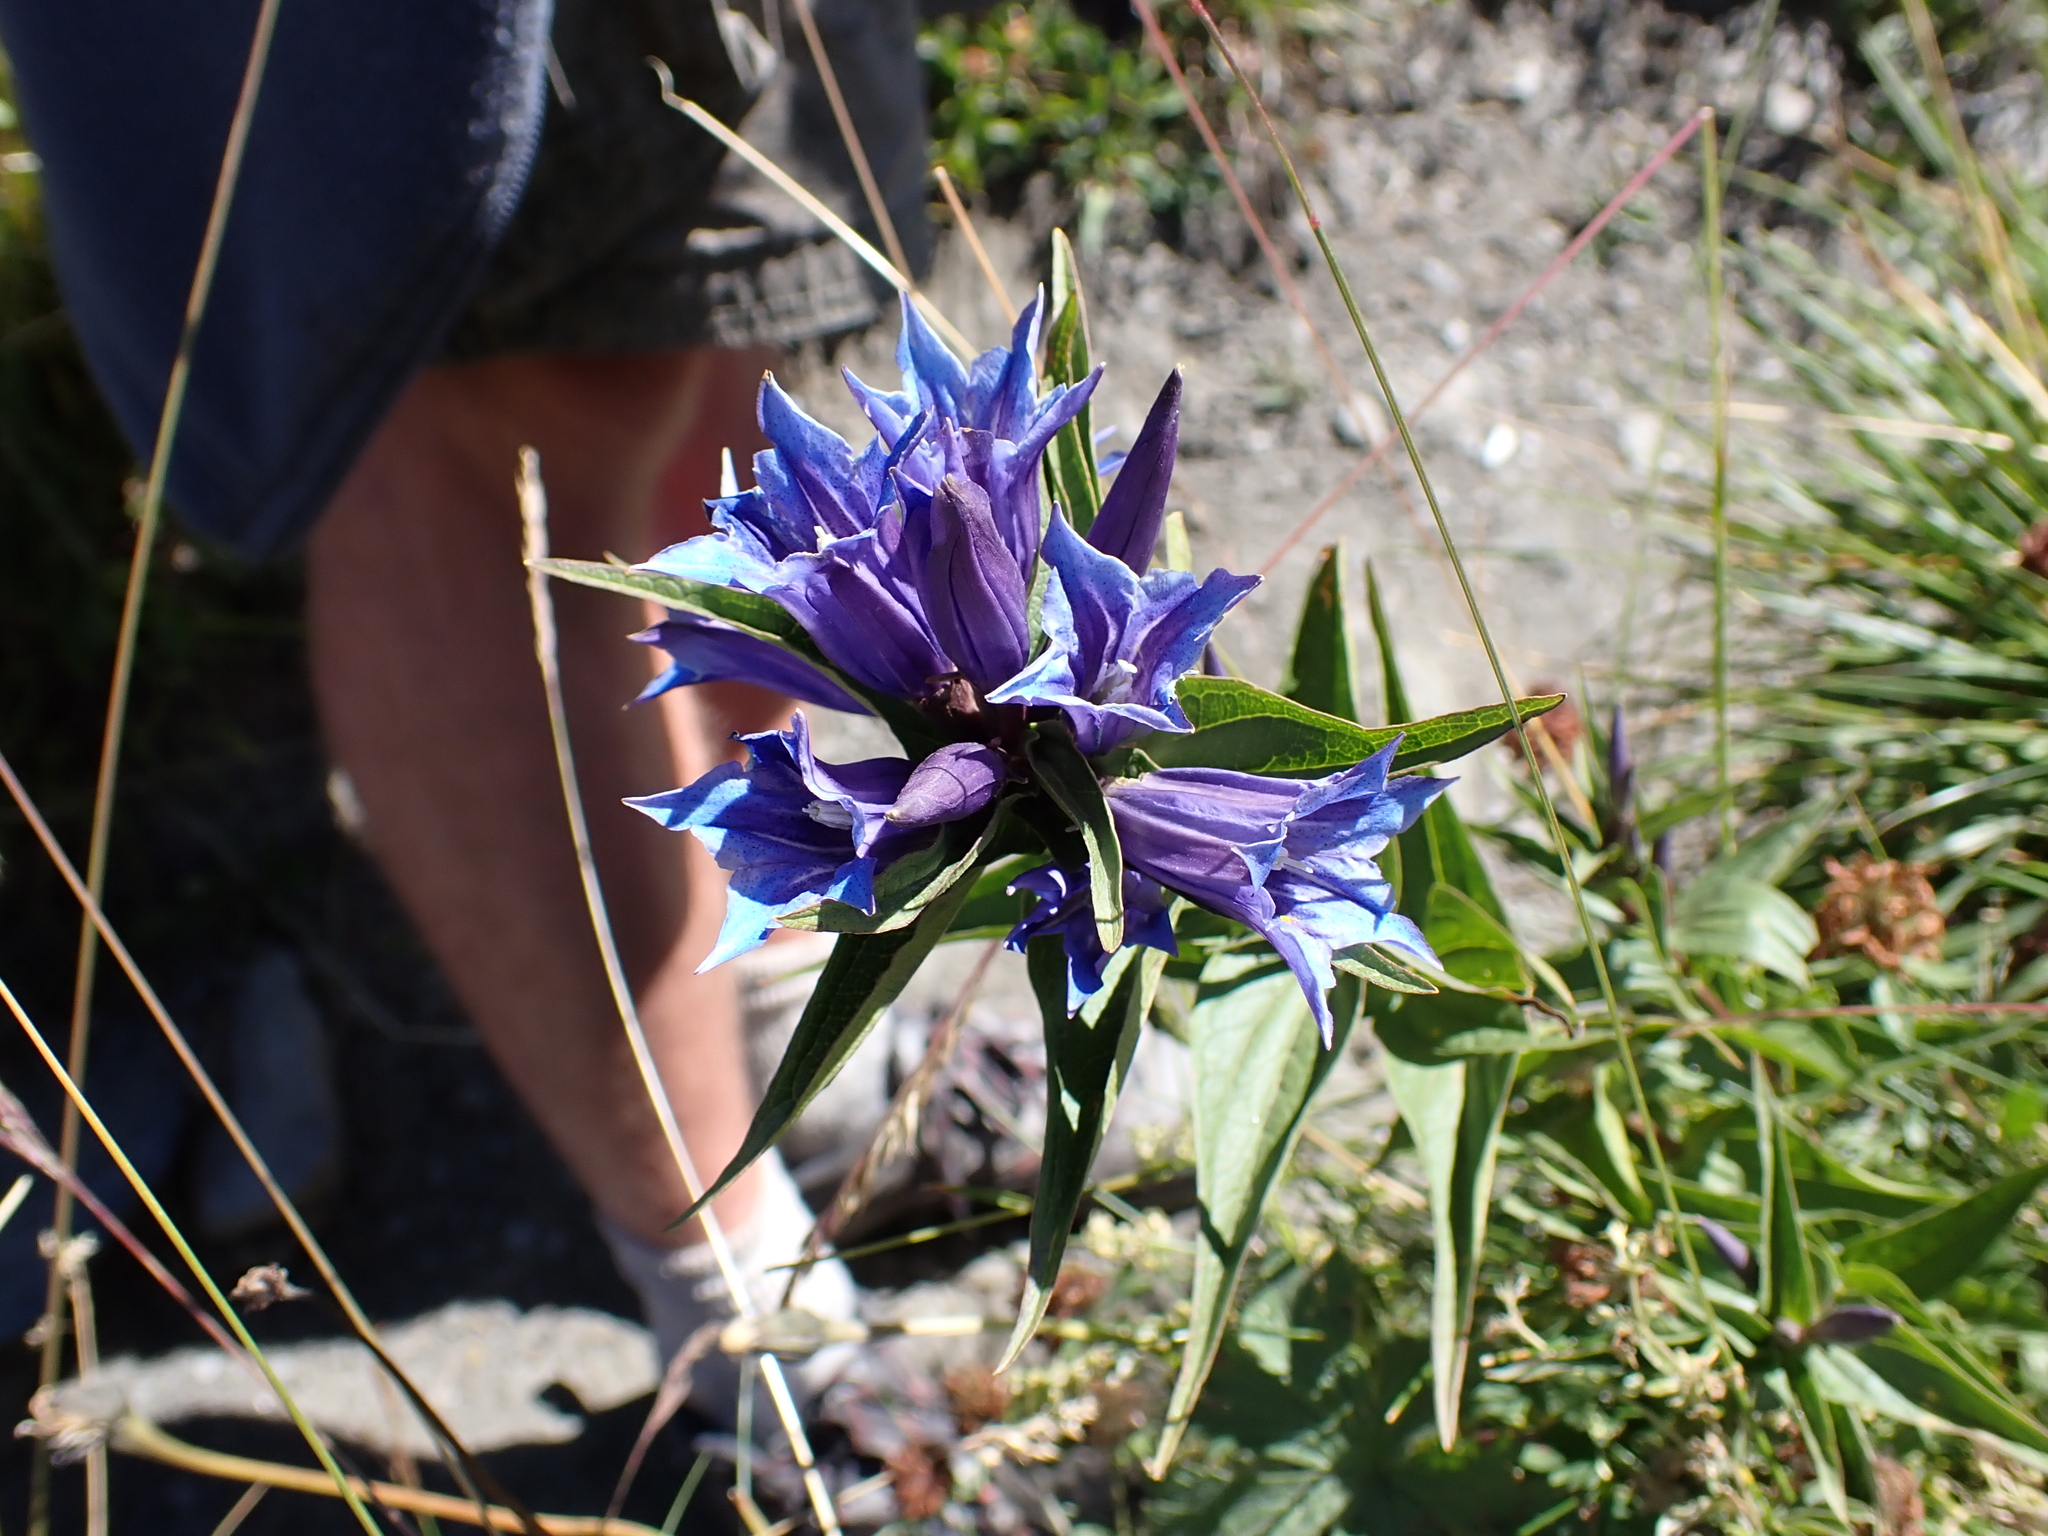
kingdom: Plantae
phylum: Tracheophyta
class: Magnoliopsida
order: Gentianales
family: Gentianaceae
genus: Gentiana
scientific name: Gentiana asclepiadea
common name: Willow gentian
